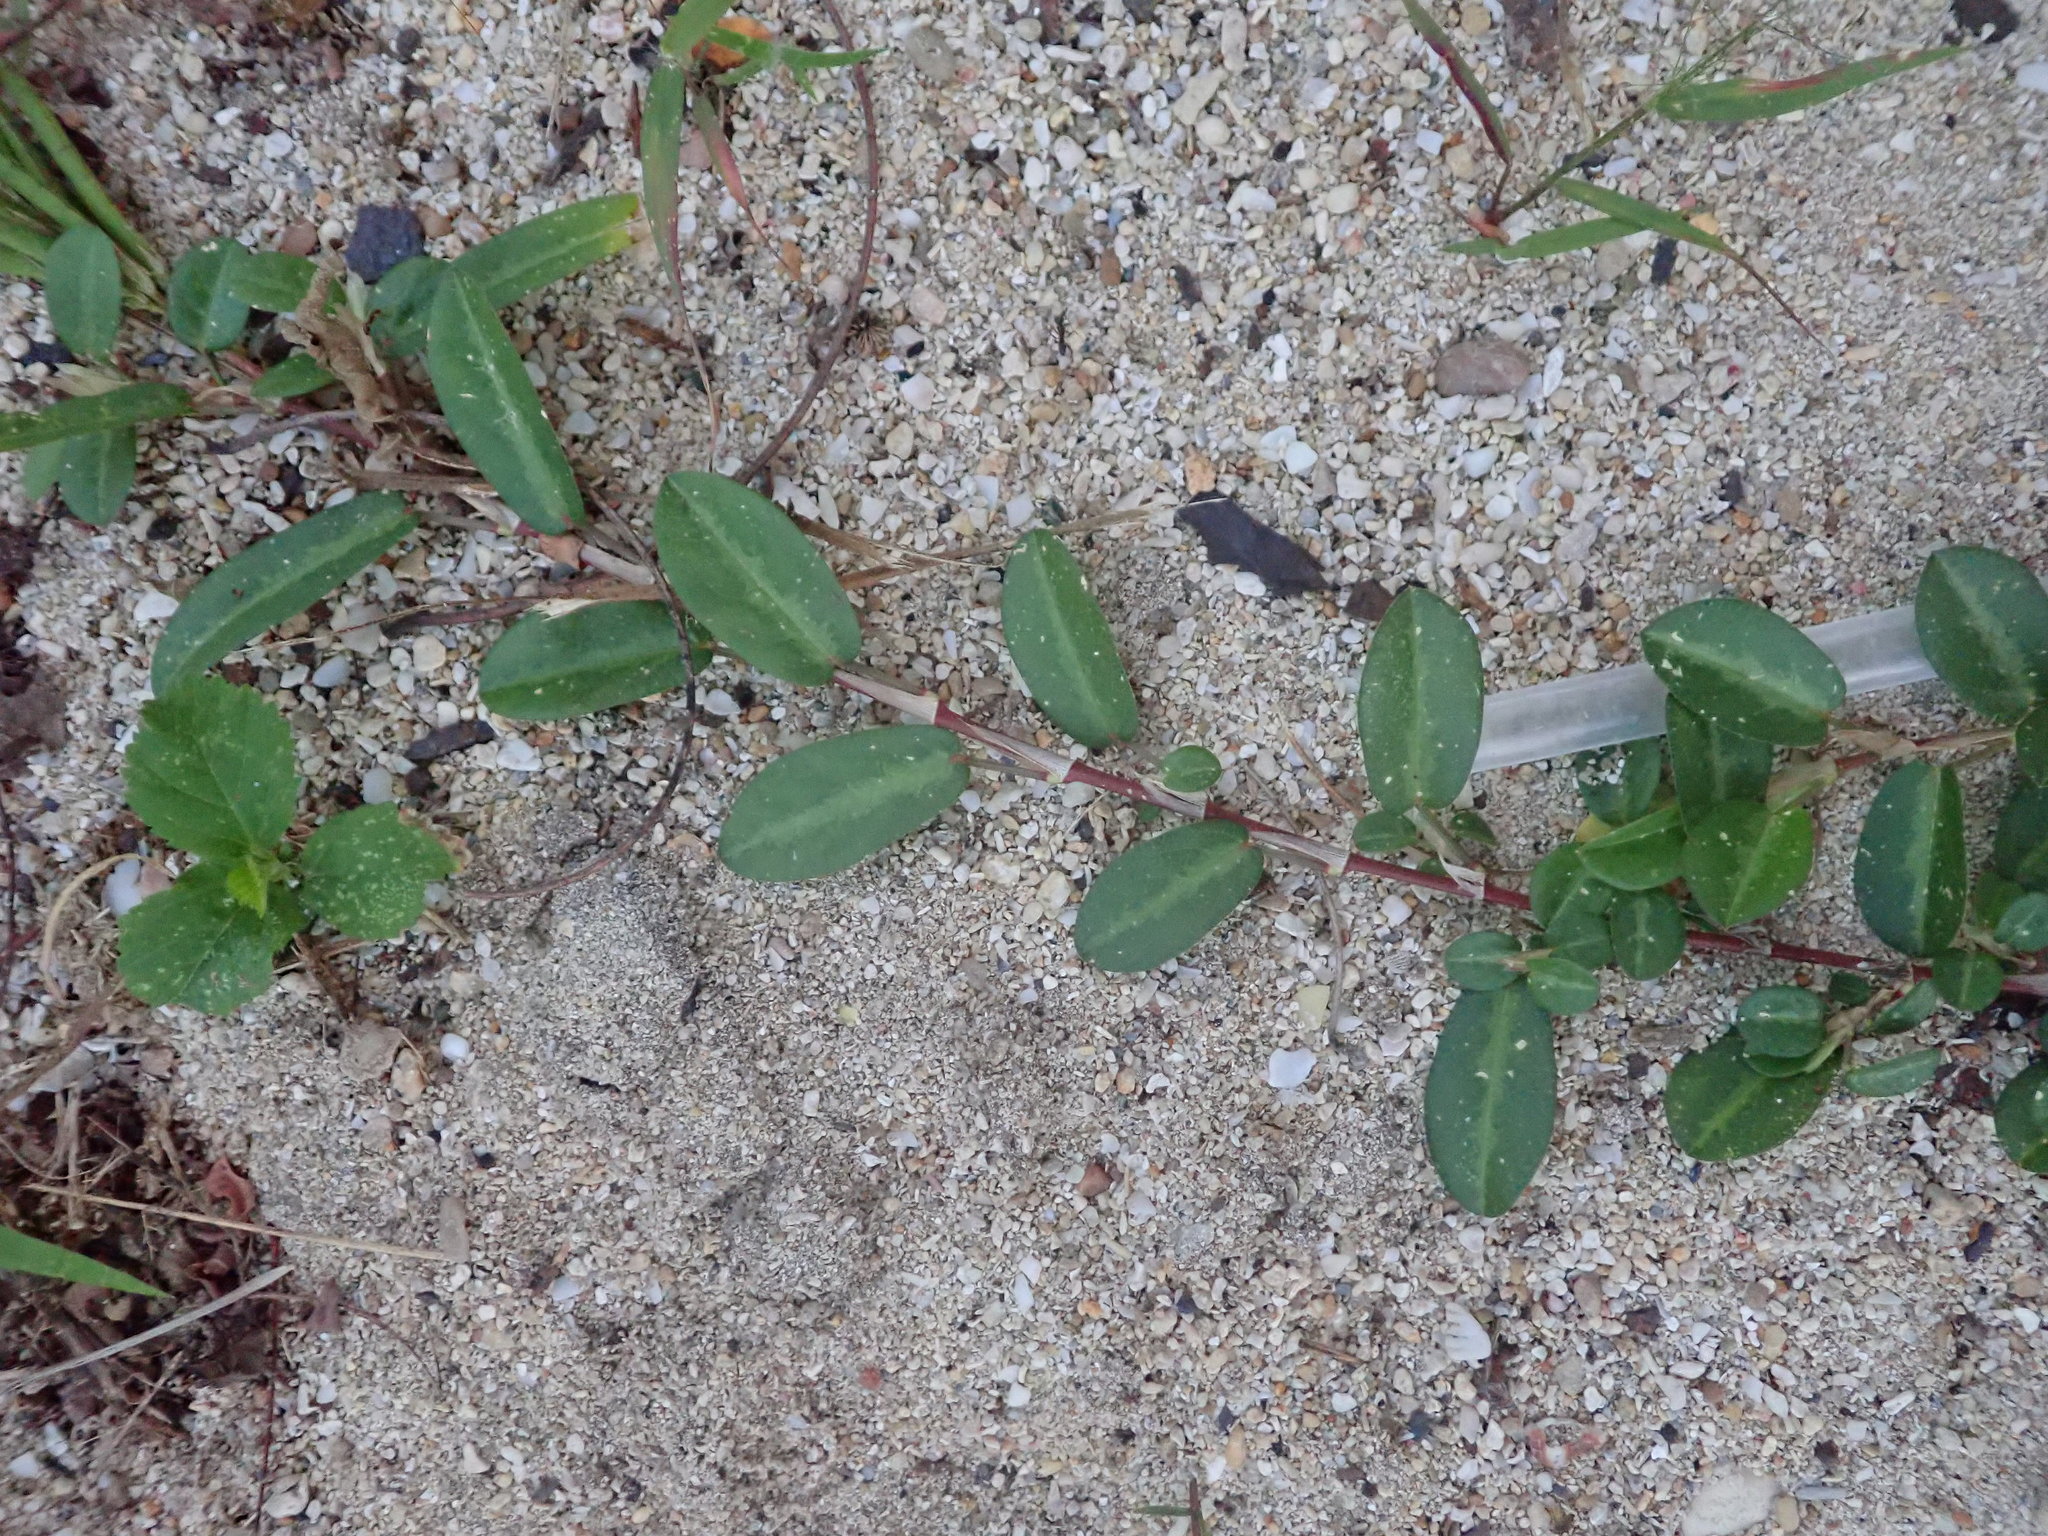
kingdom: Plantae
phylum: Tracheophyta
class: Magnoliopsida
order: Fabales
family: Fabaceae
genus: Alysicarpus
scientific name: Alysicarpus vaginalis
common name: White moneywort
